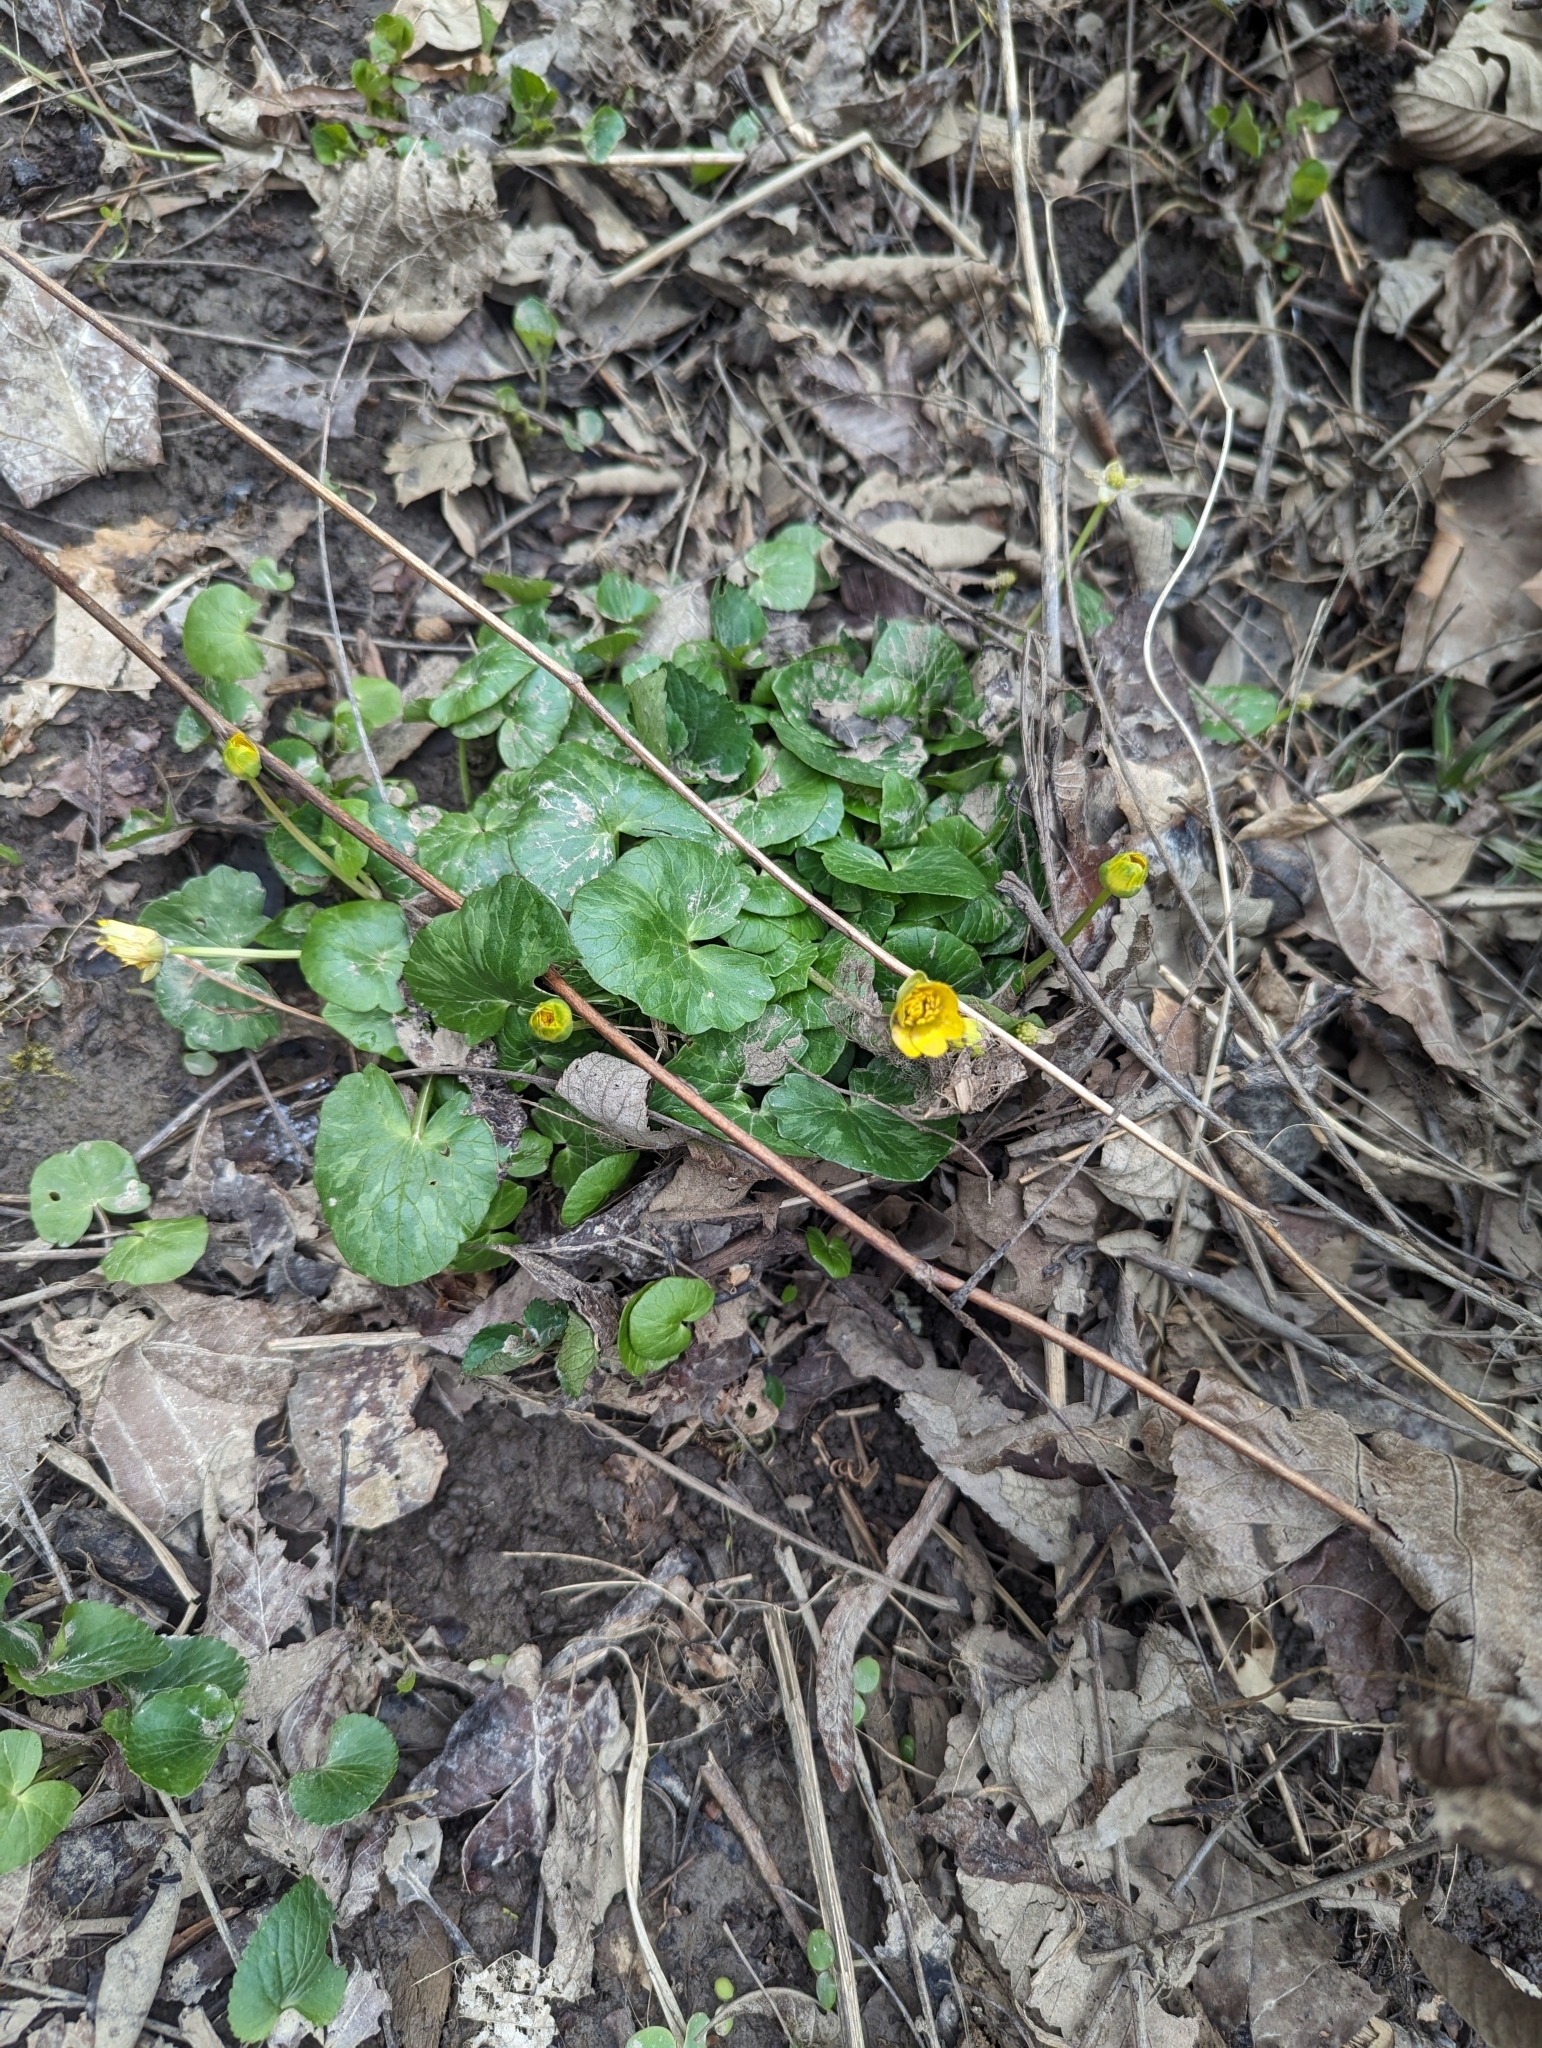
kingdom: Plantae
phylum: Tracheophyta
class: Magnoliopsida
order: Ranunculales
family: Ranunculaceae
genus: Ficaria
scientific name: Ficaria verna
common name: Lesser celandine
